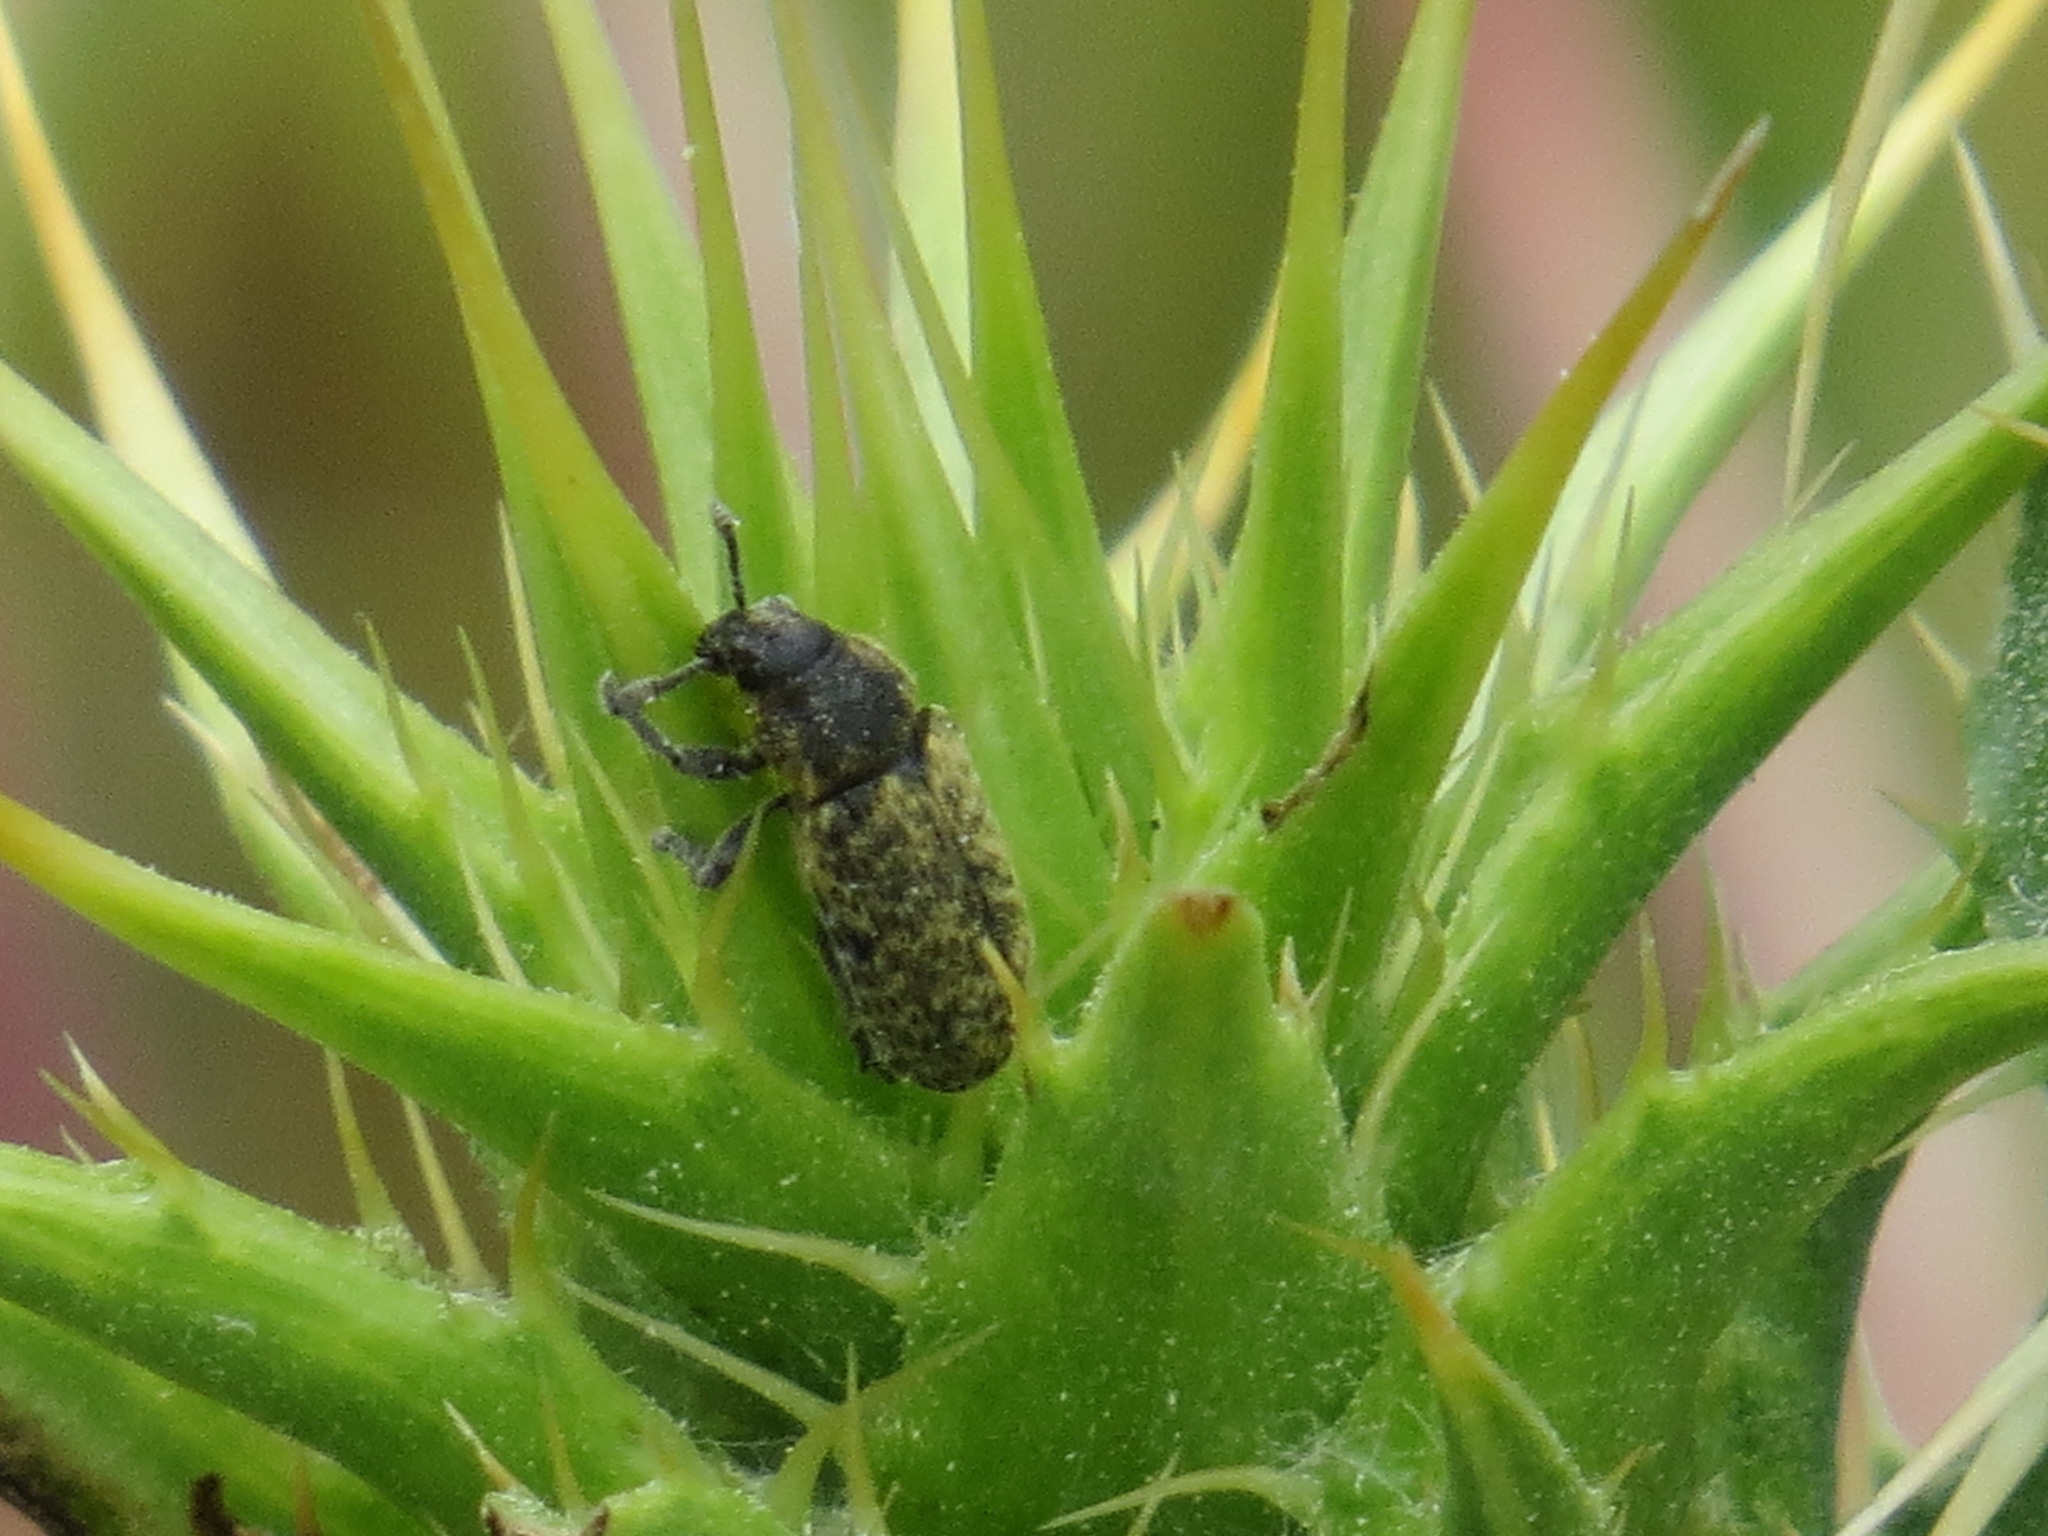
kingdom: Animalia
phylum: Arthropoda
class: Insecta
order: Coleoptera
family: Curculionidae
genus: Rhinocyllus
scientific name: Rhinocyllus conicus
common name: Weevil
